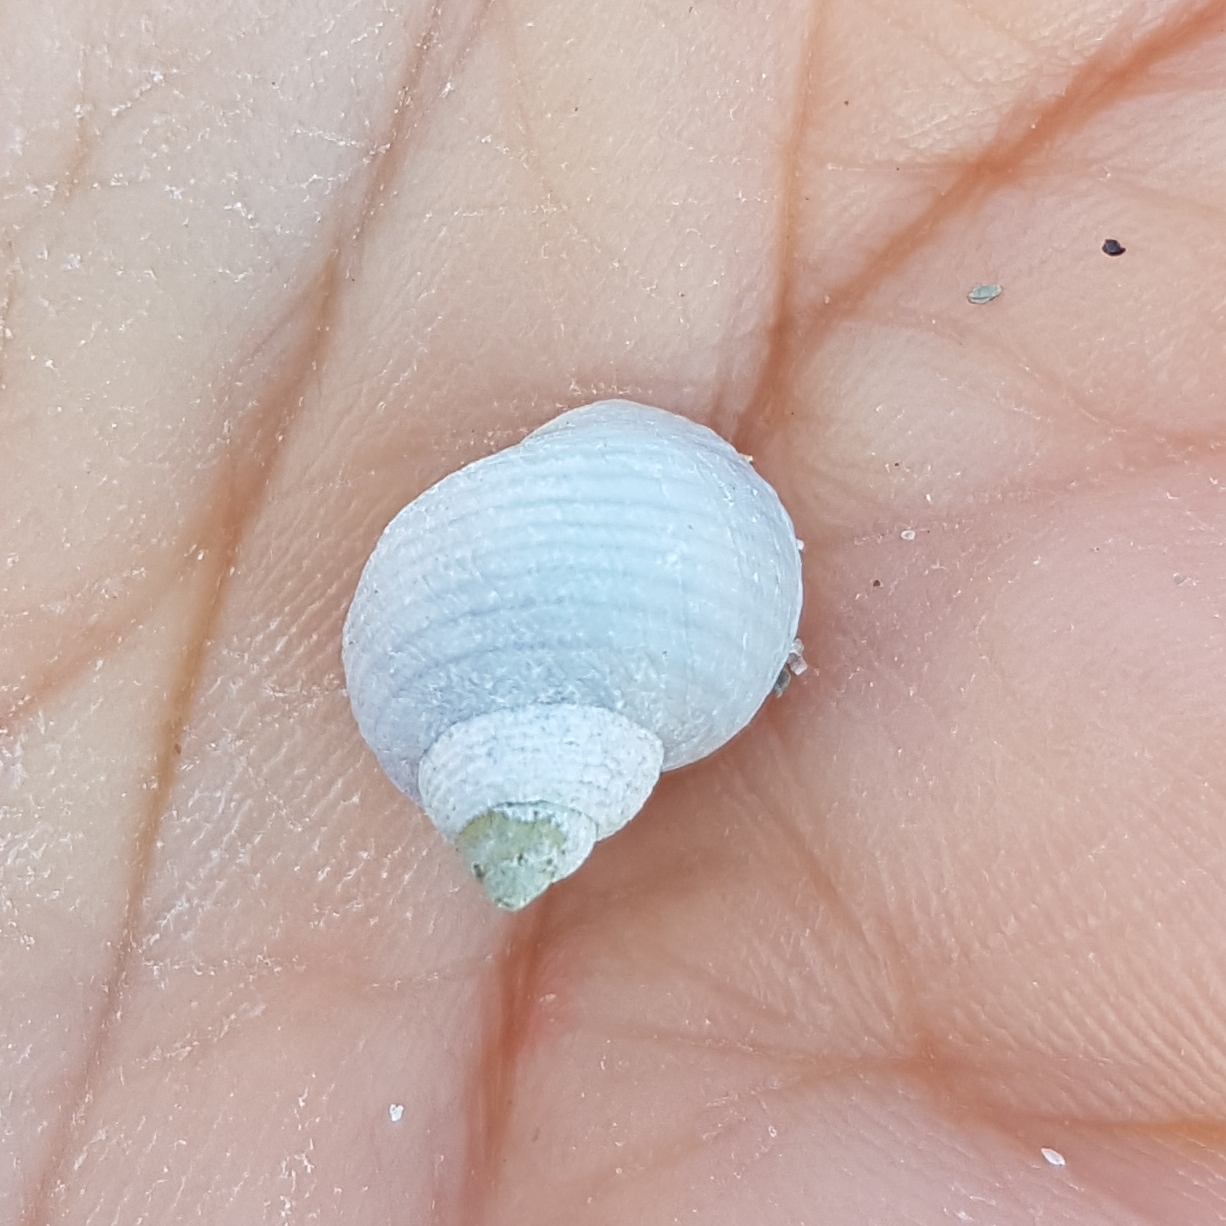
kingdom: Animalia
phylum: Mollusca
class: Gastropoda
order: Littorinimorpha
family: Littorinidae
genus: Littorina
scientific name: Littorina saxatilis
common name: Black-lined periwinkle
